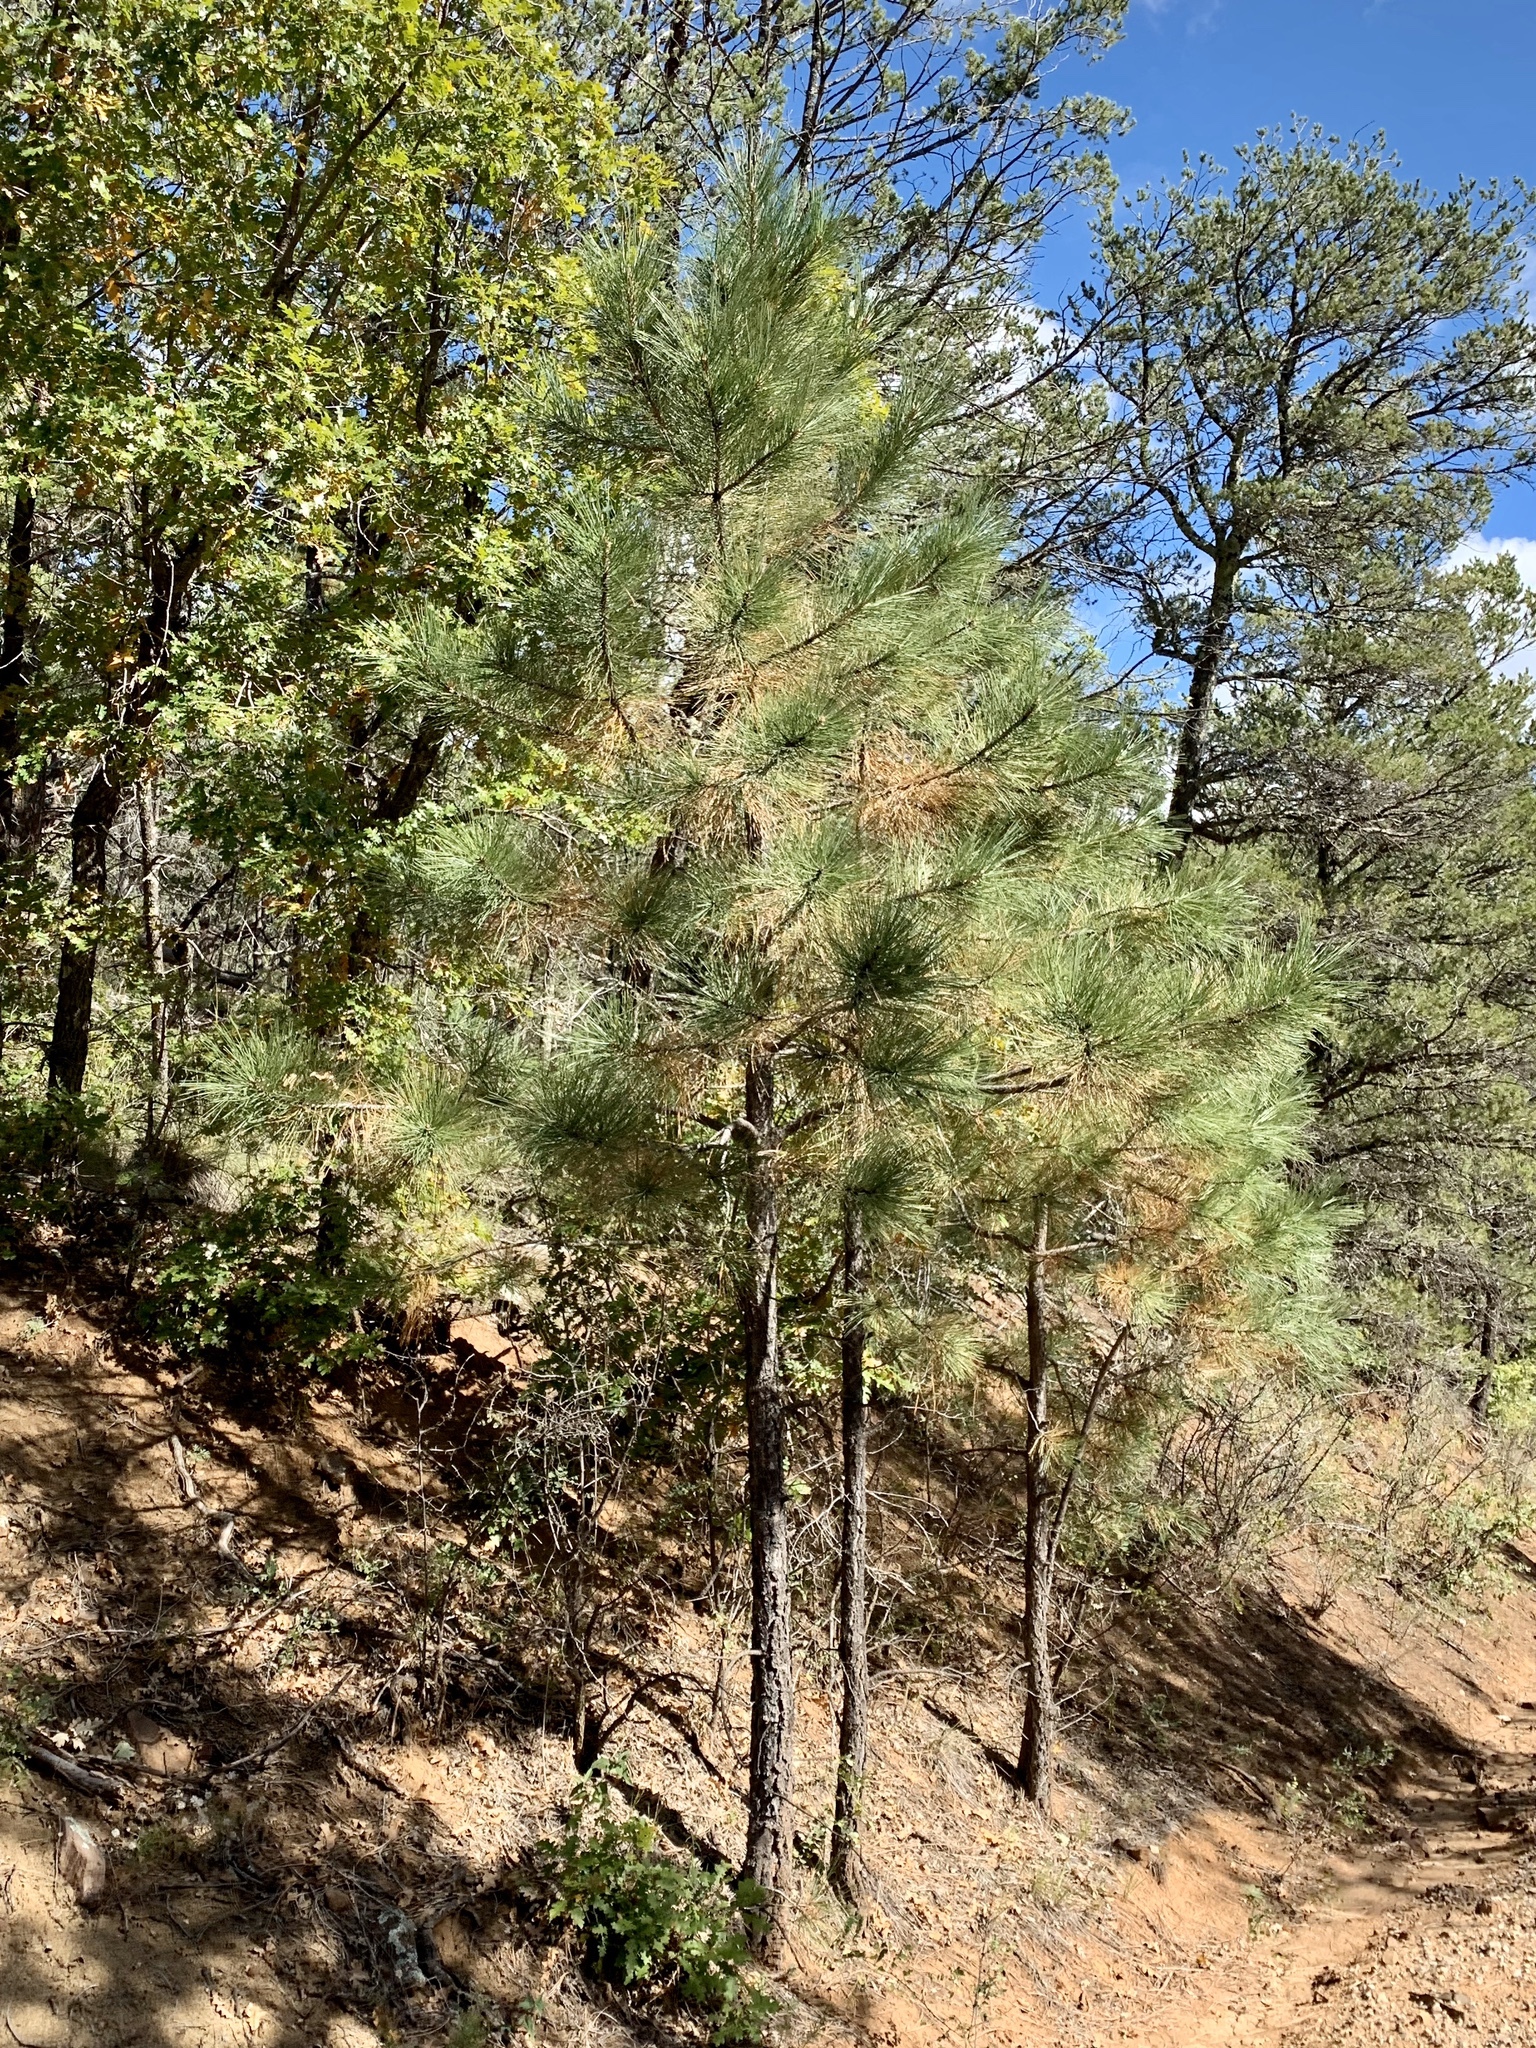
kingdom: Plantae
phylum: Tracheophyta
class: Pinopsida
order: Pinales
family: Pinaceae
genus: Pinus
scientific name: Pinus ponderosa
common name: Western yellow-pine
